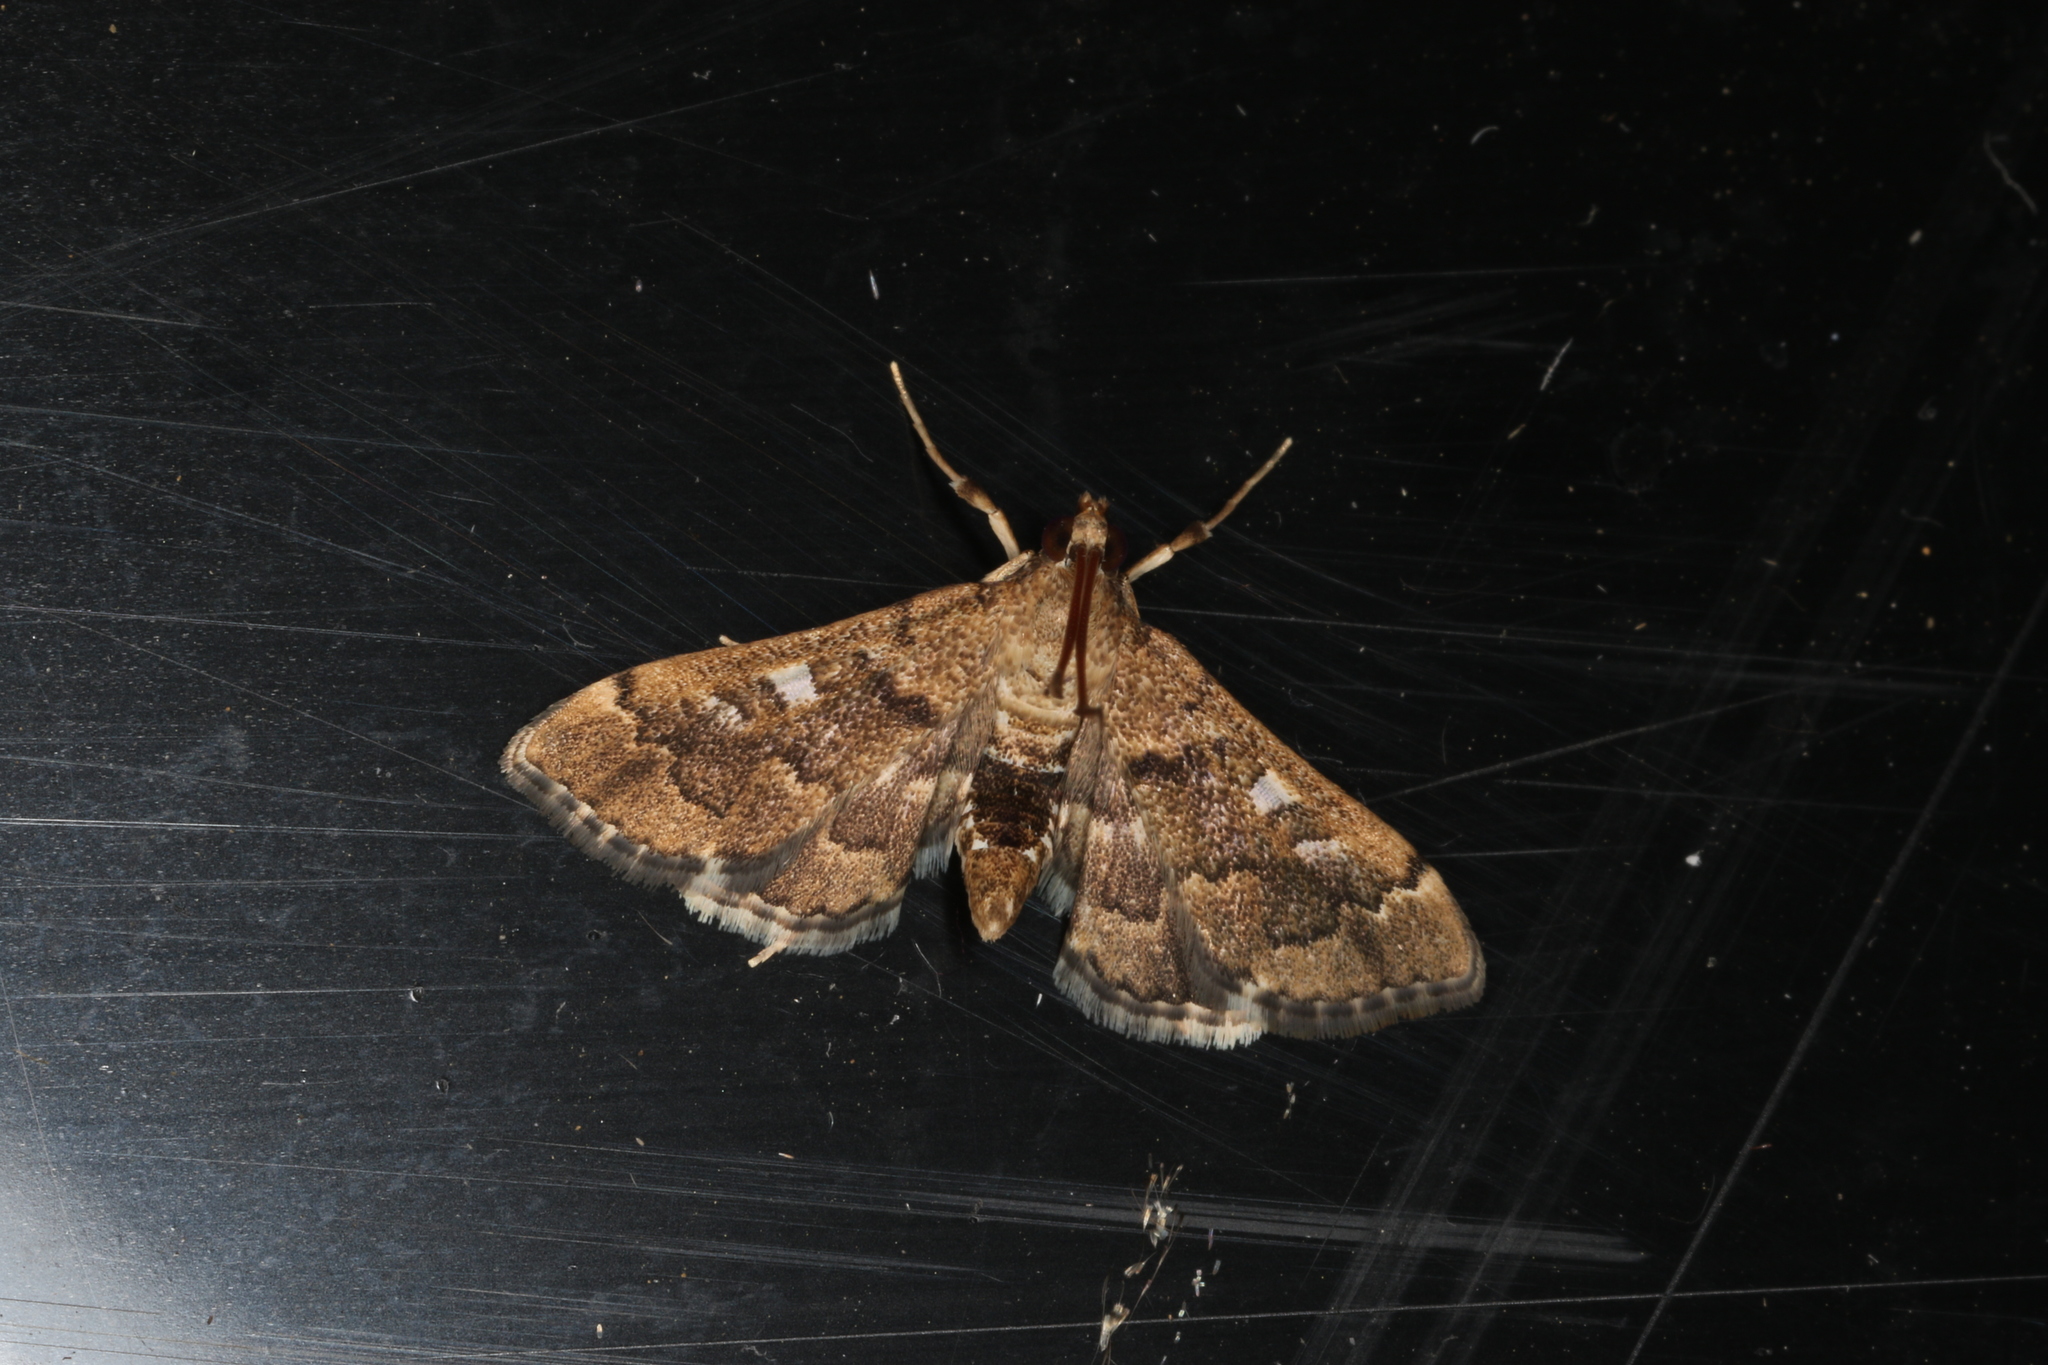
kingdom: Animalia
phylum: Arthropoda
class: Insecta
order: Lepidoptera
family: Crambidae
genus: Nacoleia
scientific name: Nacoleia rhoeoalis
